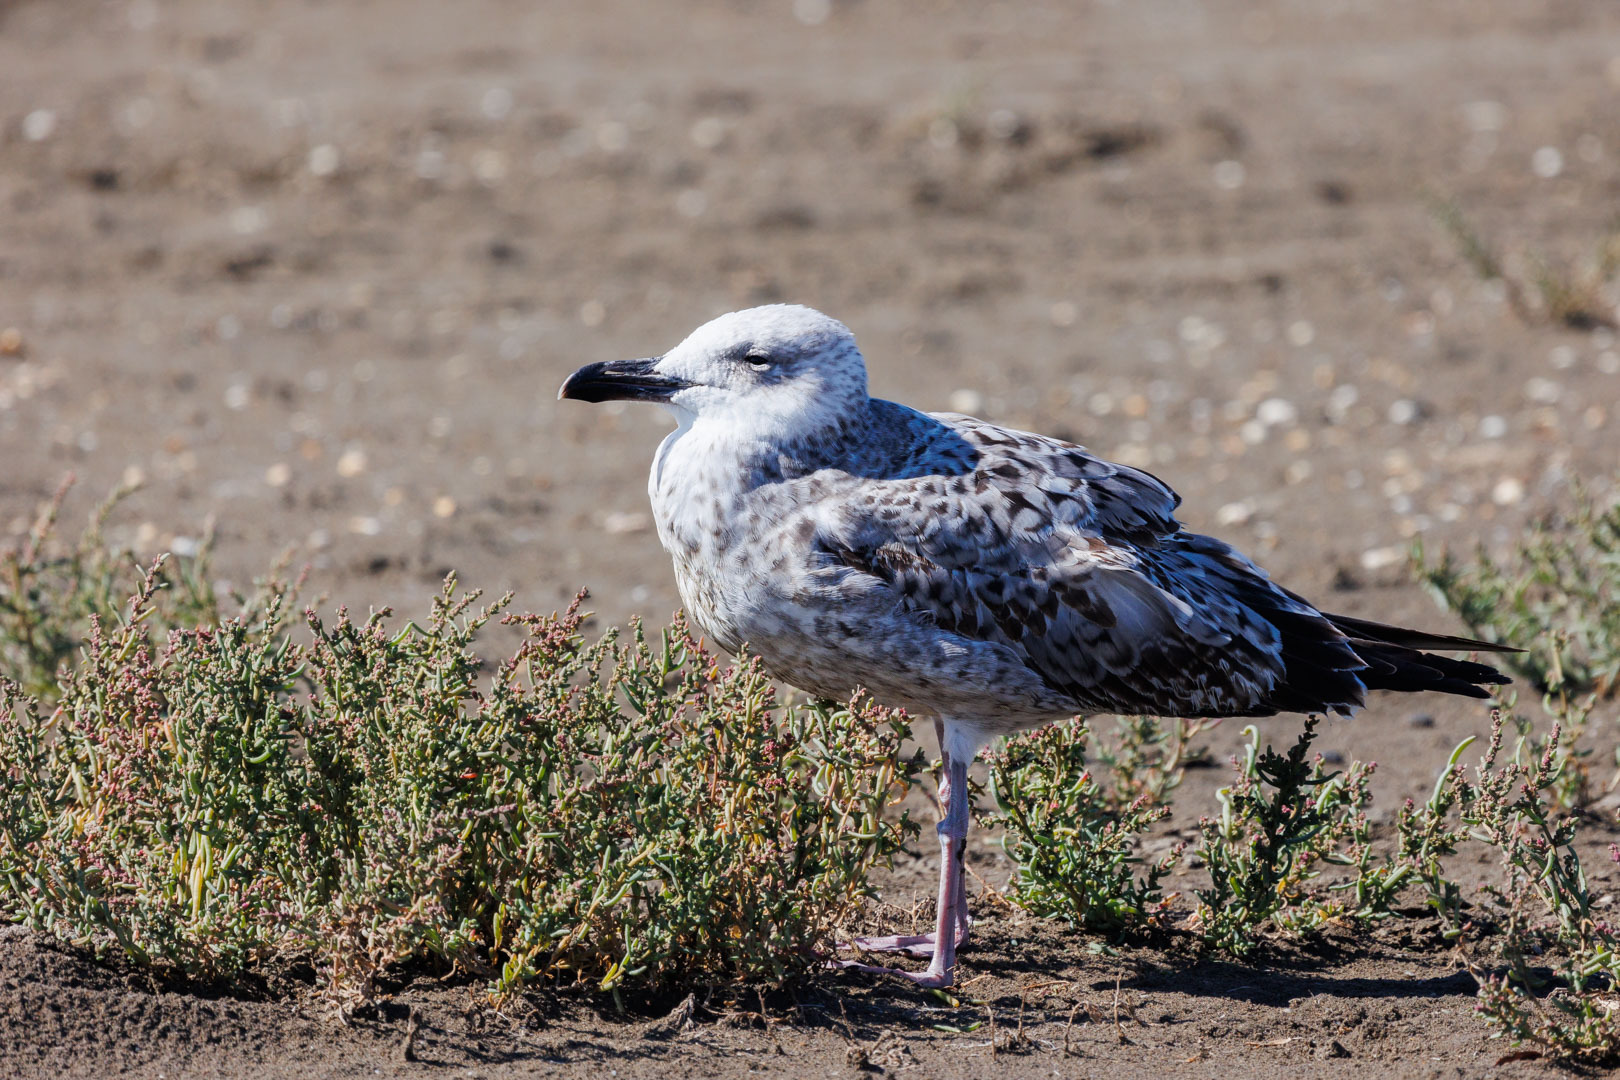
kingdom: Animalia
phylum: Chordata
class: Aves
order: Charadriiformes
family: Laridae
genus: Larus
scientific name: Larus cachinnans
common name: Caspian gull
